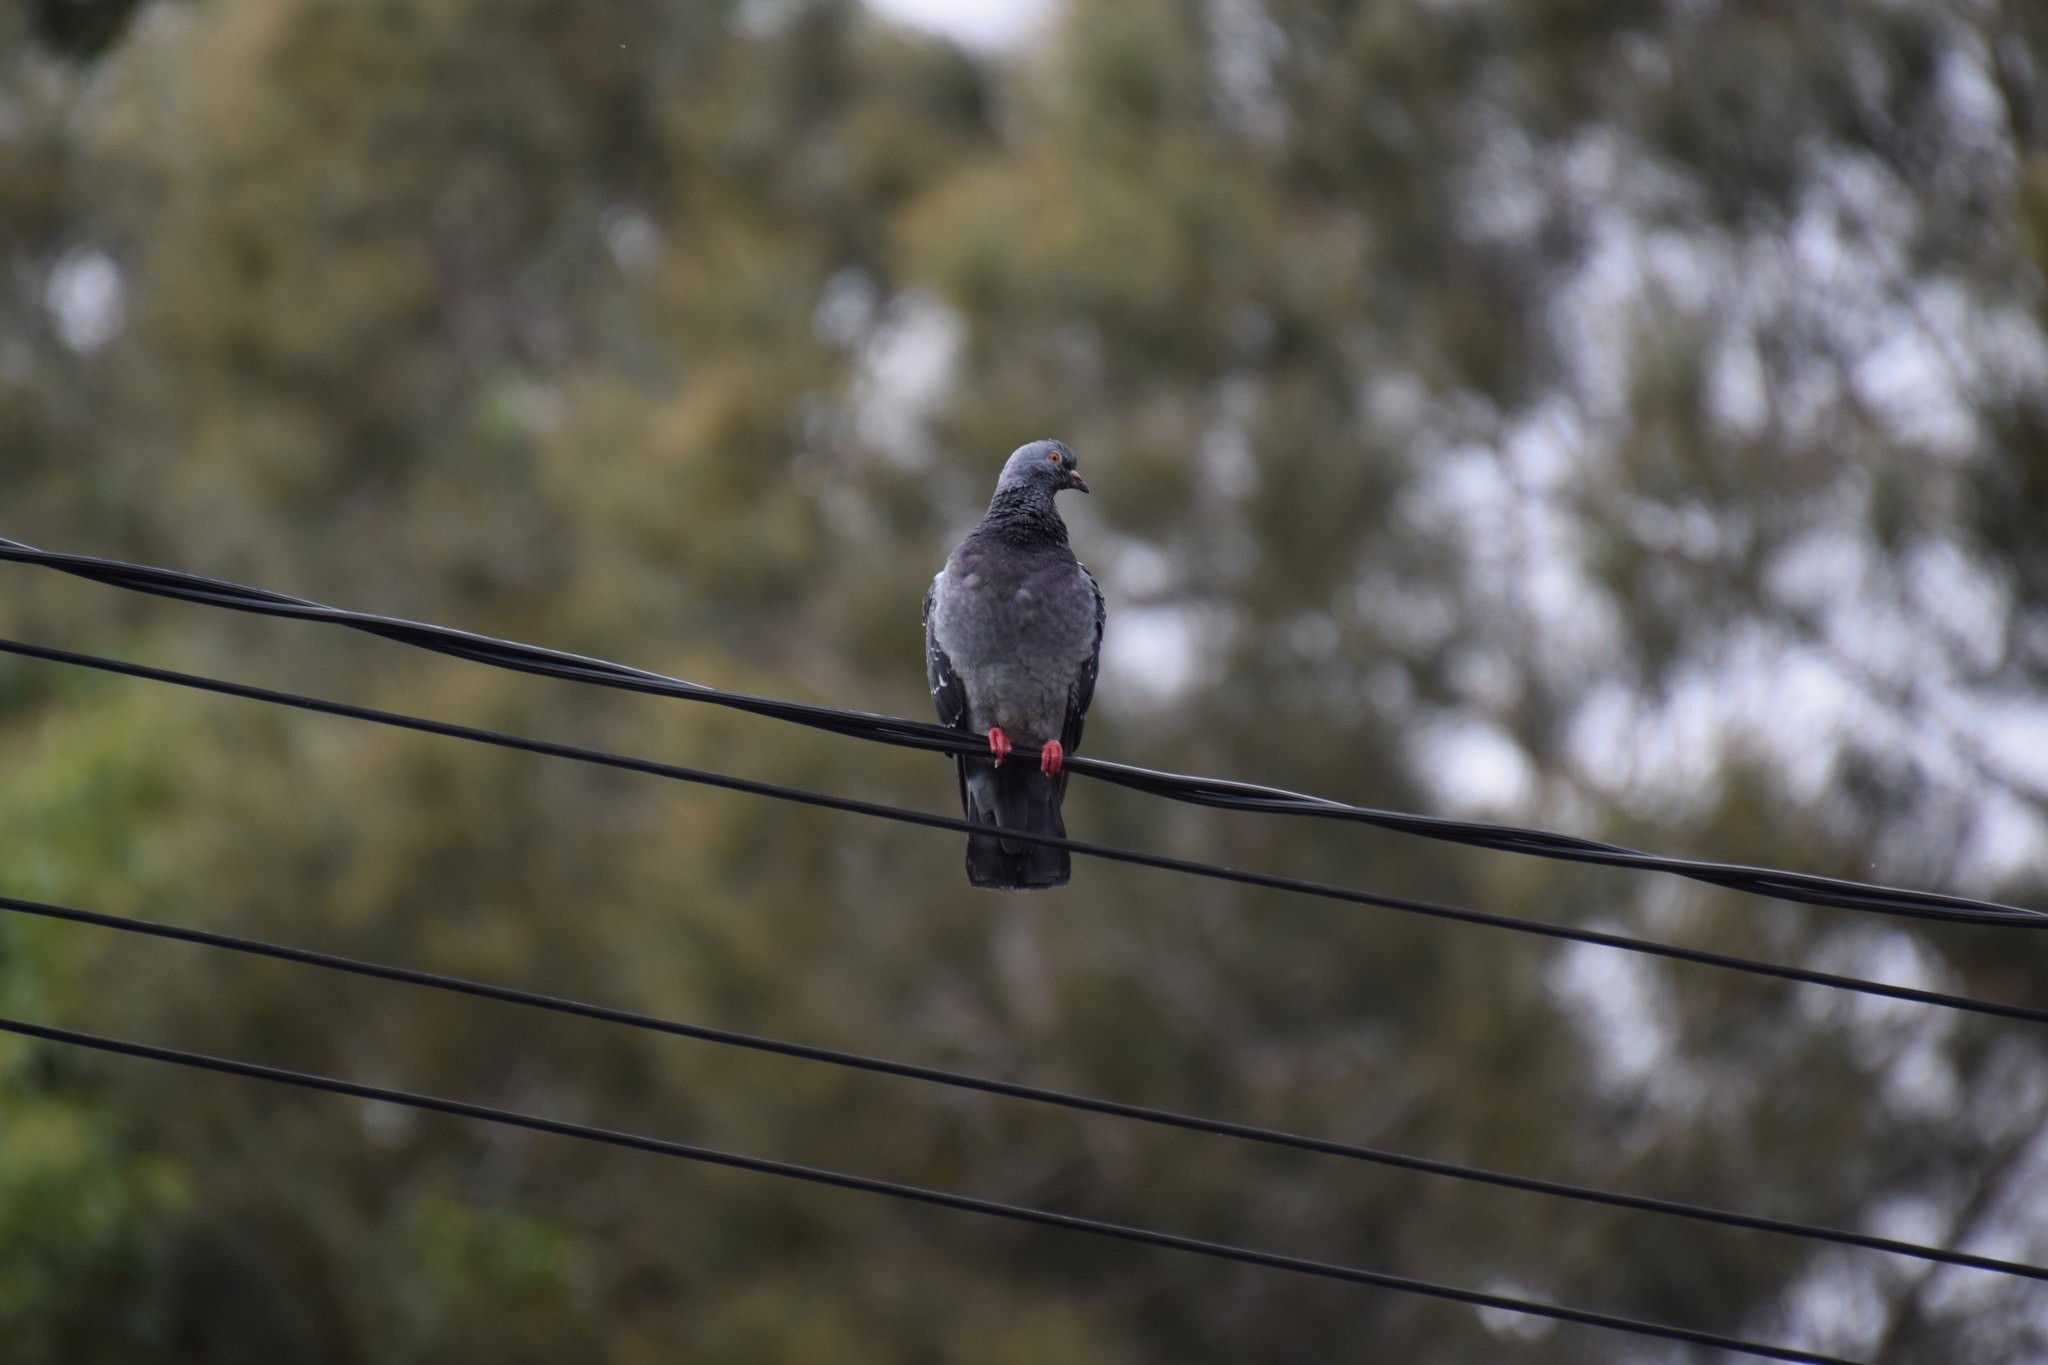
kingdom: Animalia
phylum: Chordata
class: Aves
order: Columbiformes
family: Columbidae
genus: Columba
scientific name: Columba livia
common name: Rock pigeon
